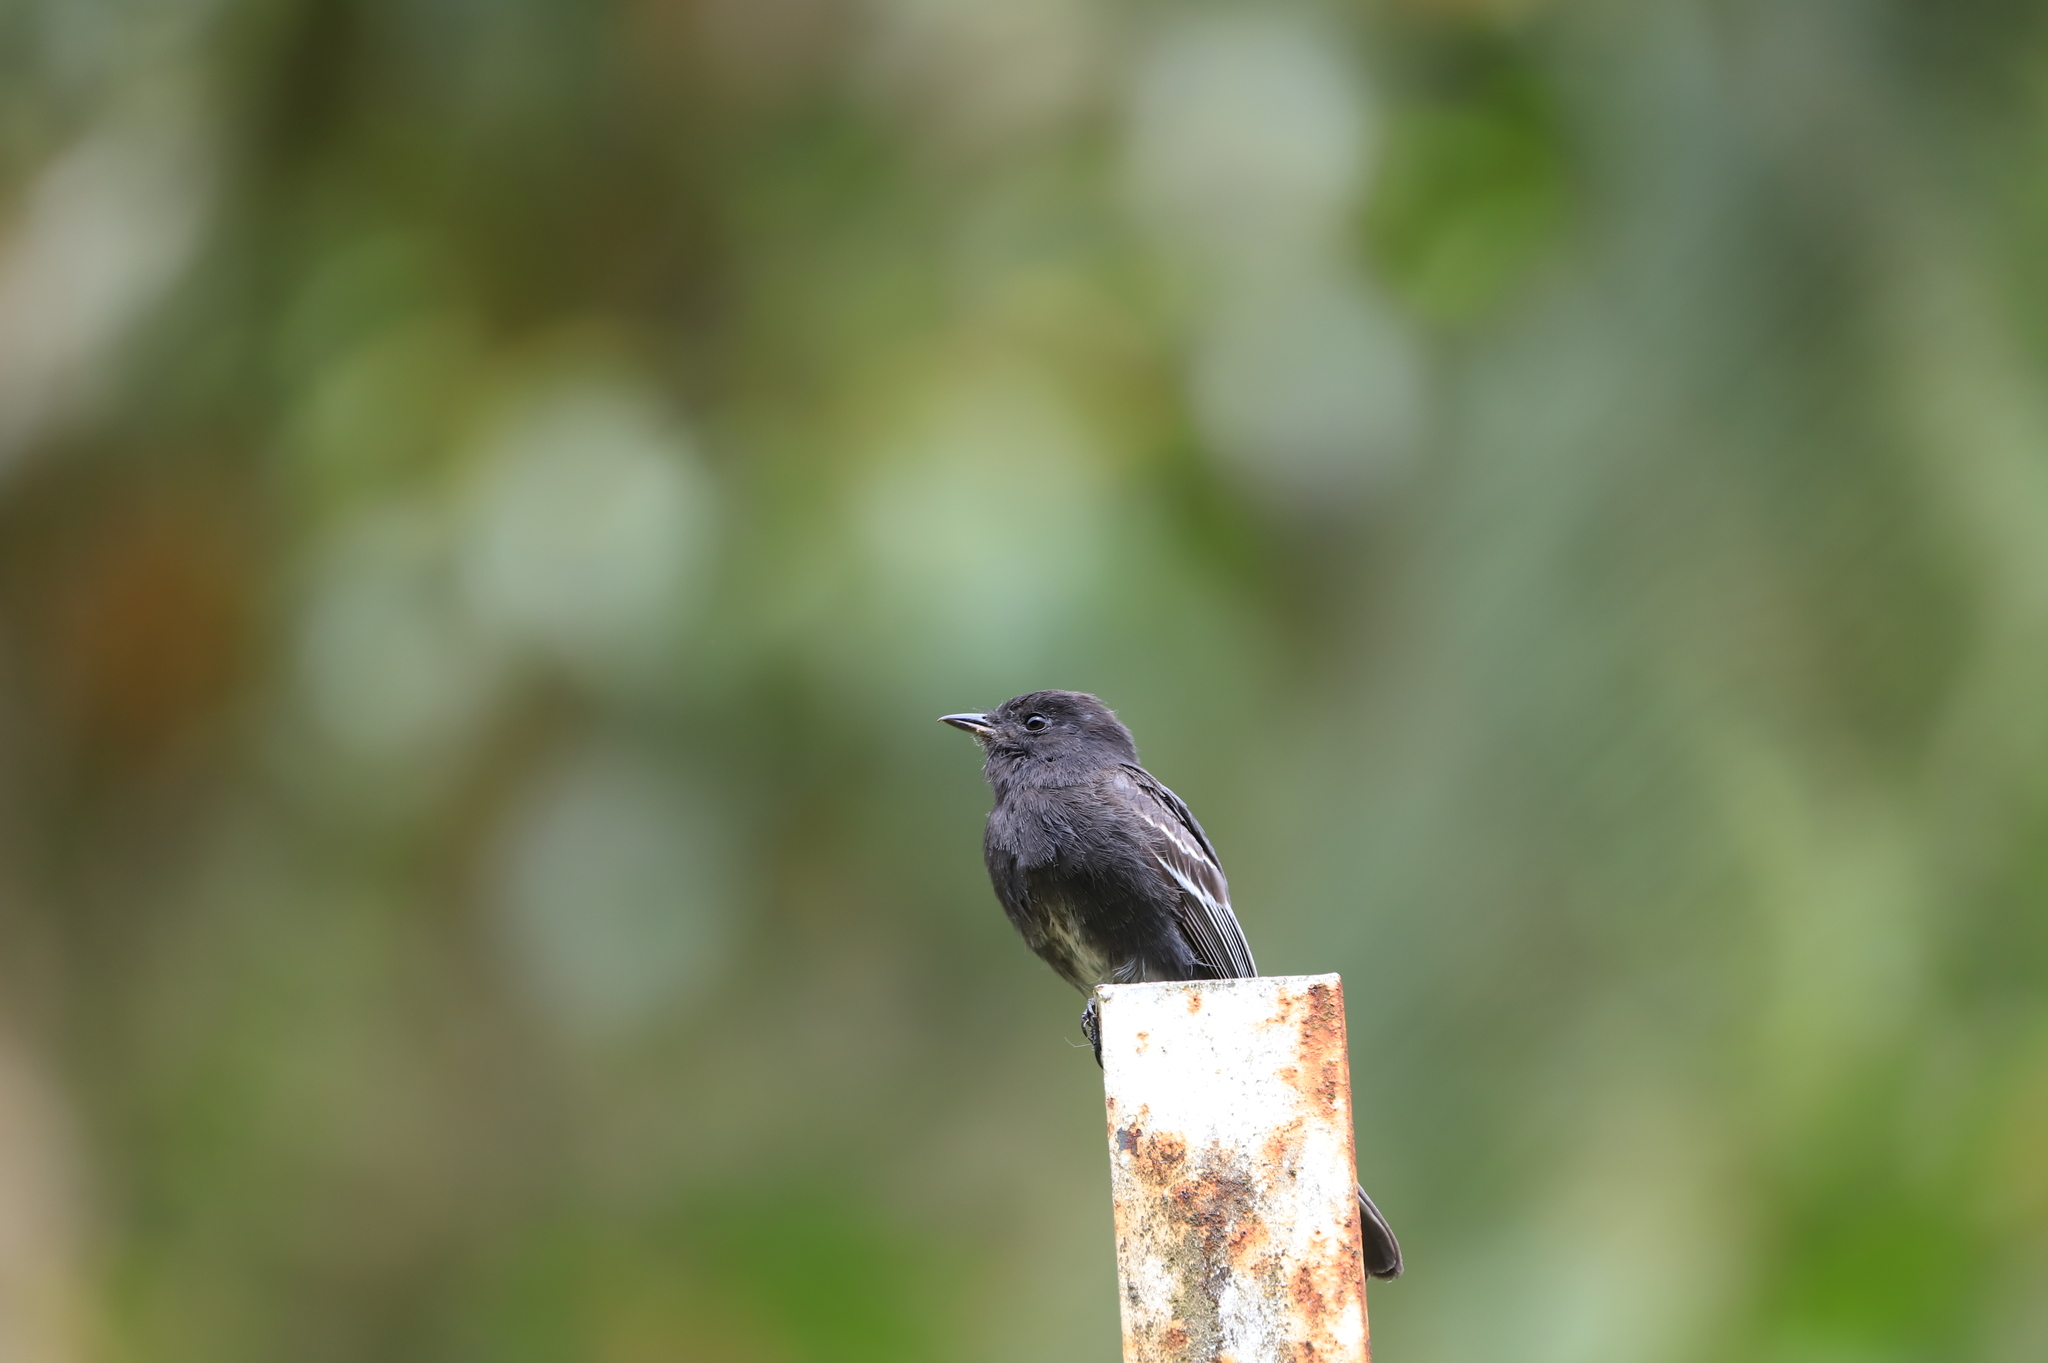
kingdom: Animalia
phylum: Chordata
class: Aves
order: Passeriformes
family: Tyrannidae
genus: Sayornis
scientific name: Sayornis nigricans
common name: Black phoebe
